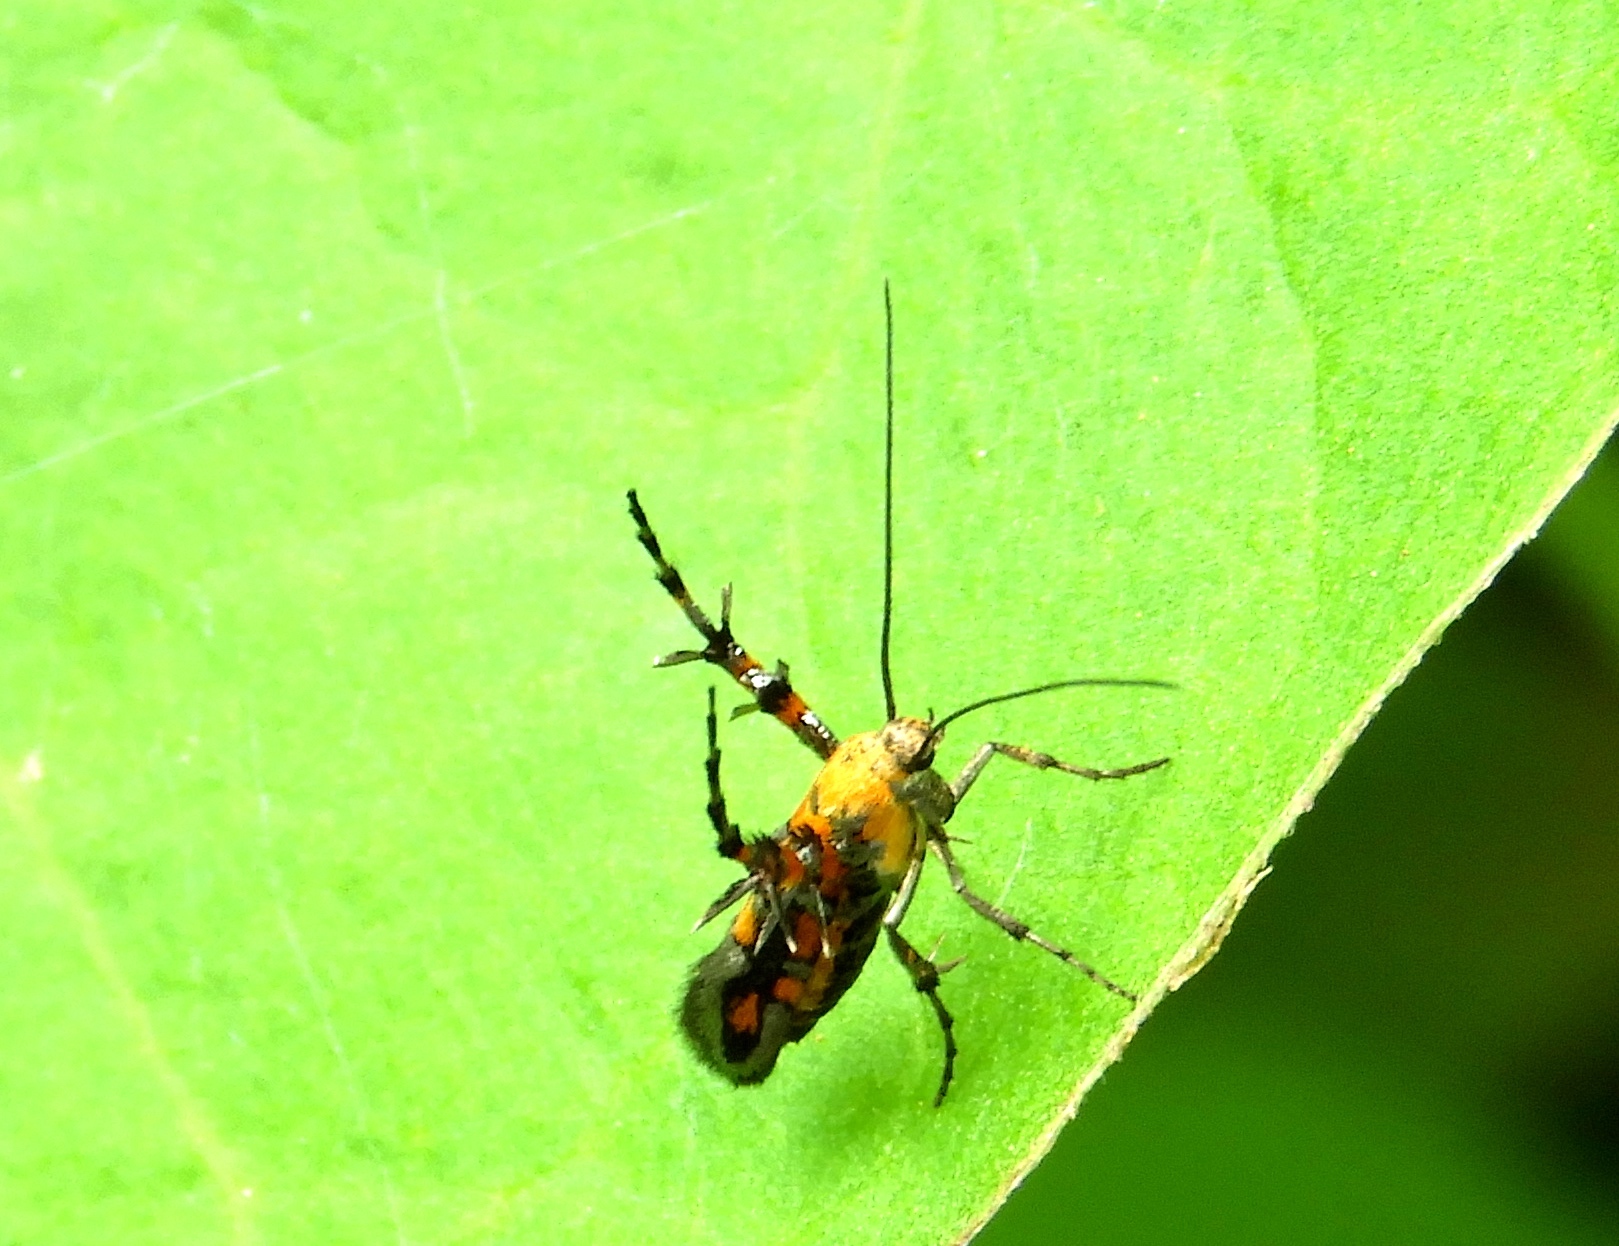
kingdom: Animalia
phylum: Arthropoda
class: Insecta
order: Lepidoptera
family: Heliodinidae
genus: Heliodines
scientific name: Heliodines
